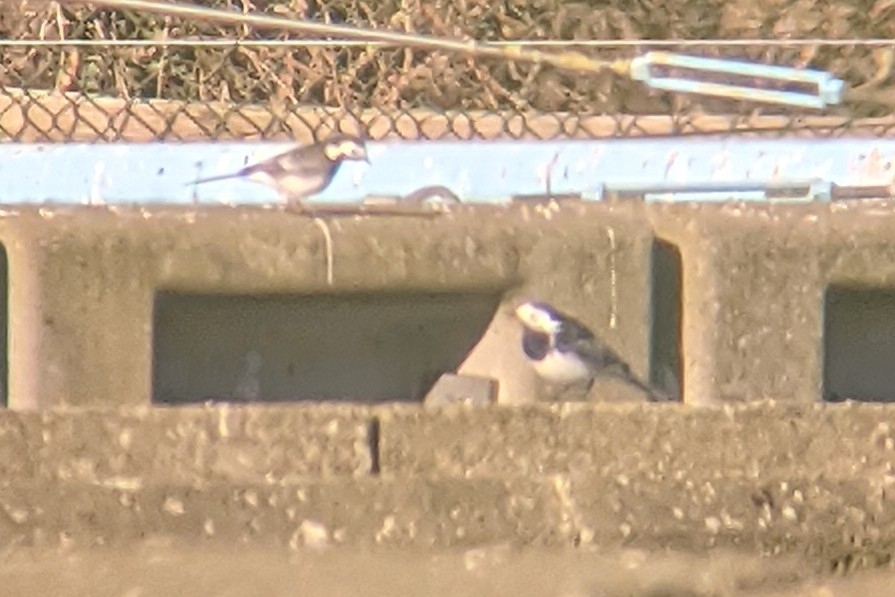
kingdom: Animalia
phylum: Chordata
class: Aves
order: Passeriformes
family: Motacillidae
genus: Motacilla
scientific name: Motacilla alba
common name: White wagtail
